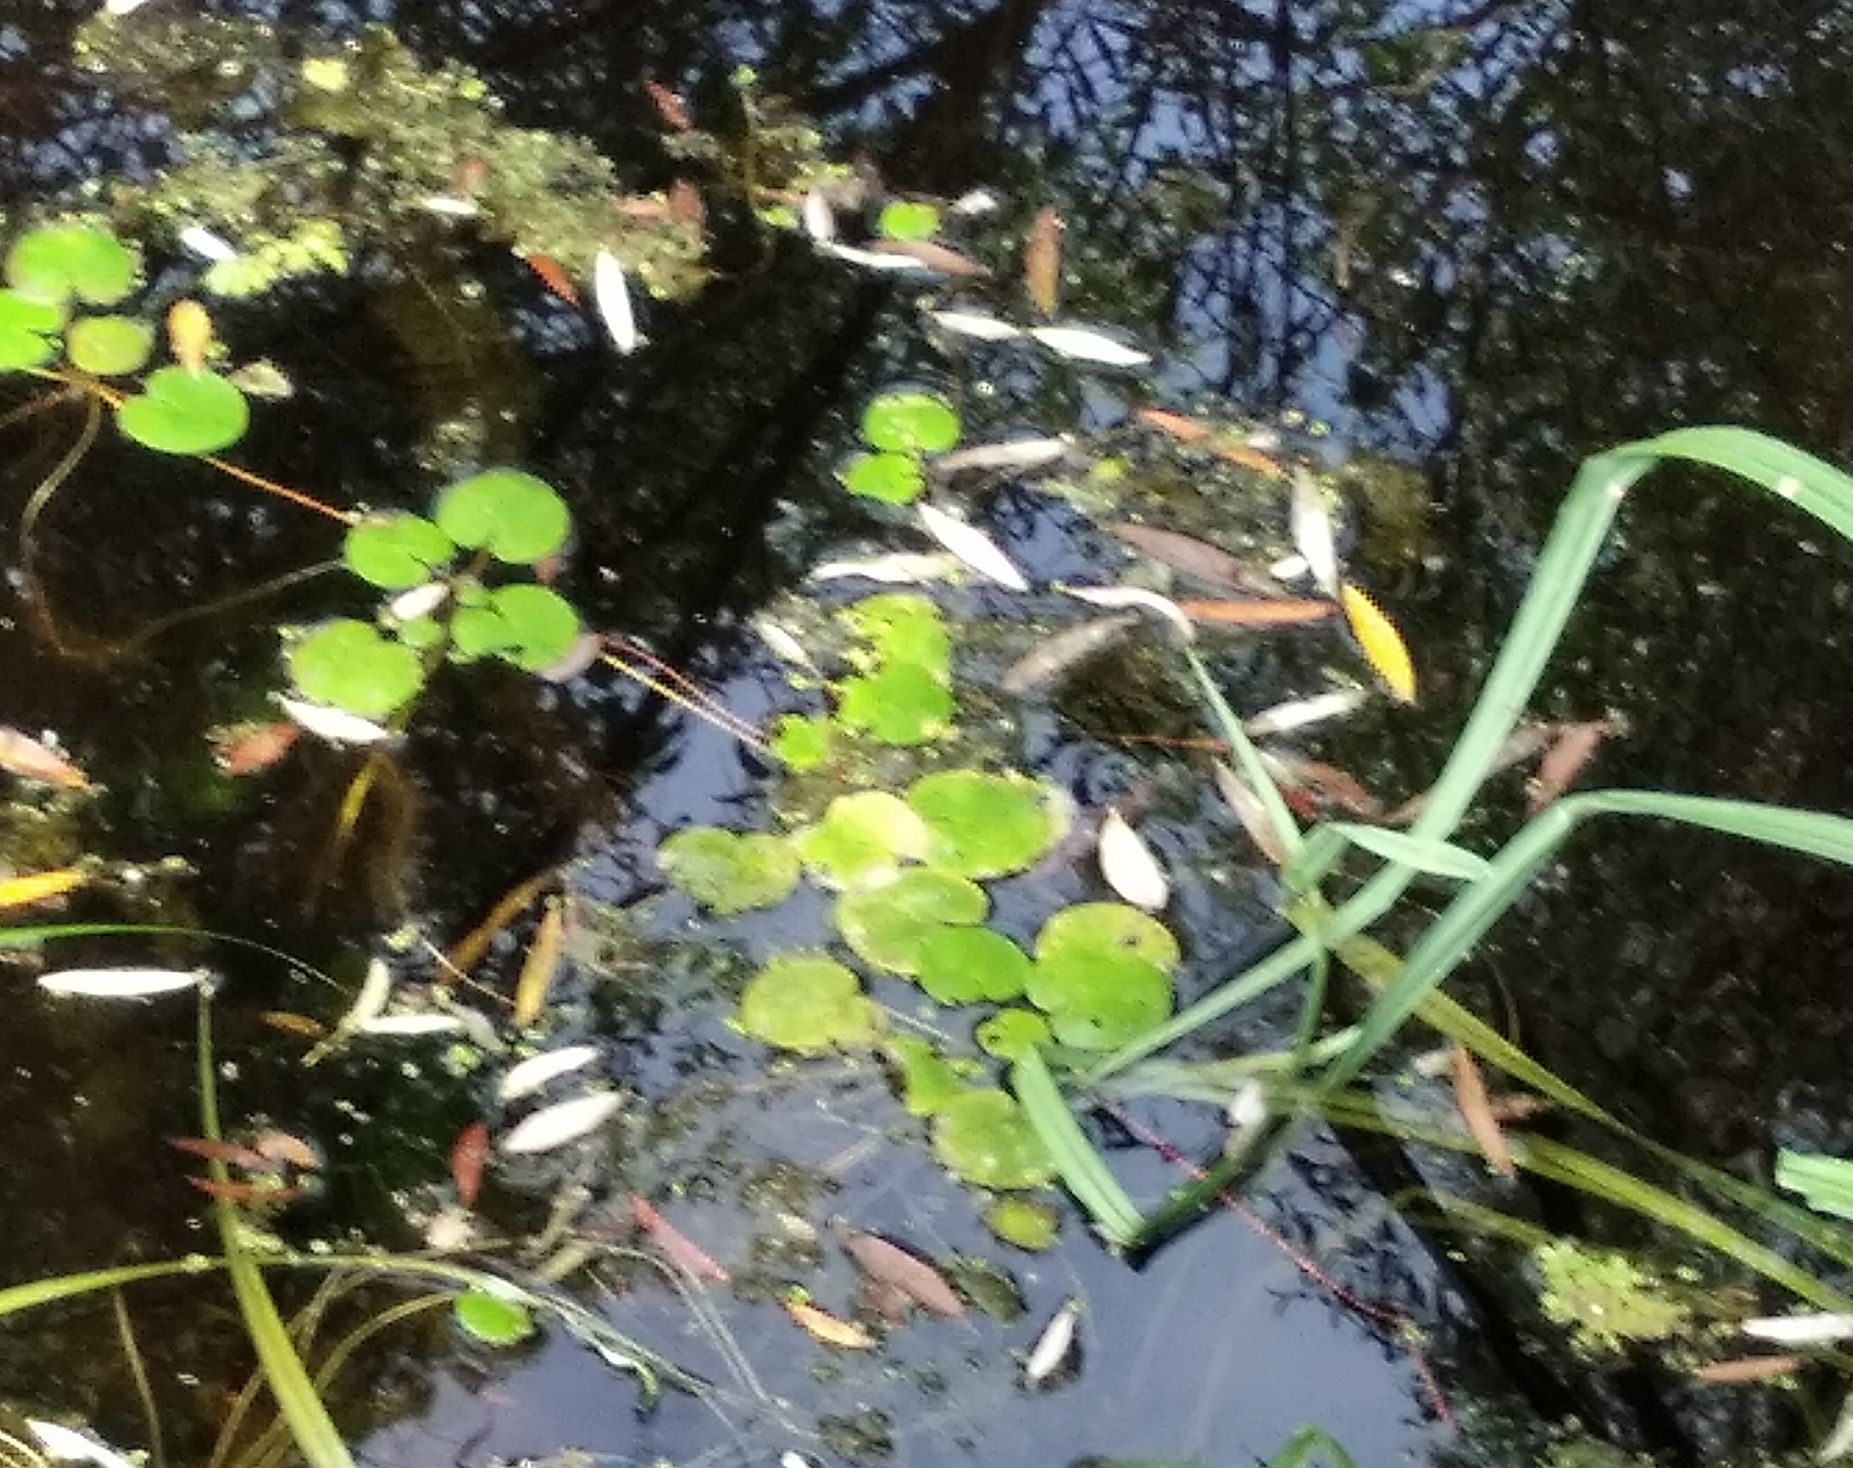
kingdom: Plantae
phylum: Tracheophyta
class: Liliopsida
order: Alismatales
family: Hydrocharitaceae
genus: Hydrocharis
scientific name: Hydrocharis morsus-ranae
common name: Frogbit
